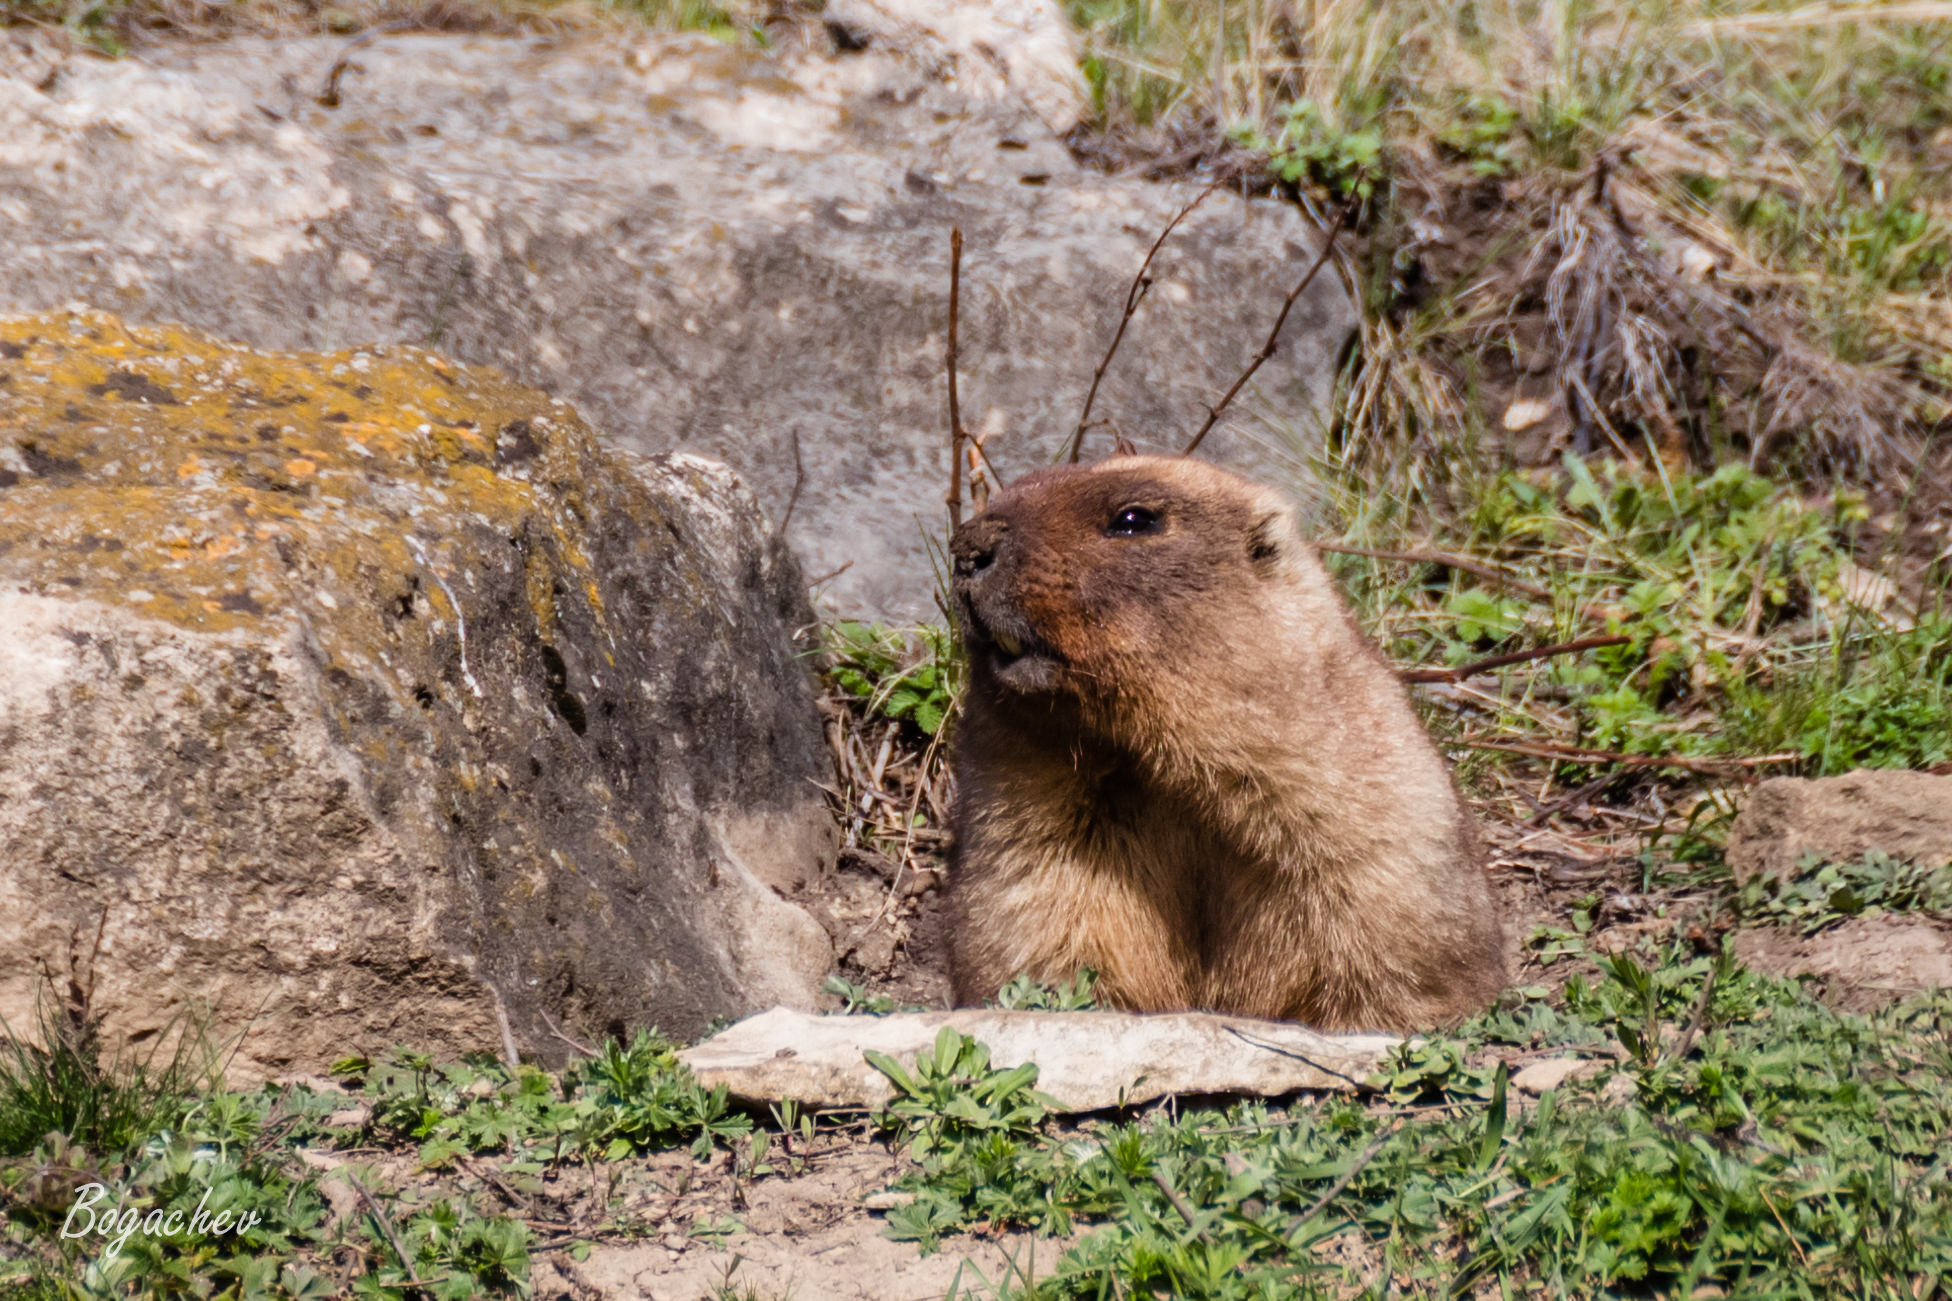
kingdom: Animalia
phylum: Chordata
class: Mammalia
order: Rodentia
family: Sciuridae
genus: Marmota
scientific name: Marmota bobak
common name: Bobak marmot
